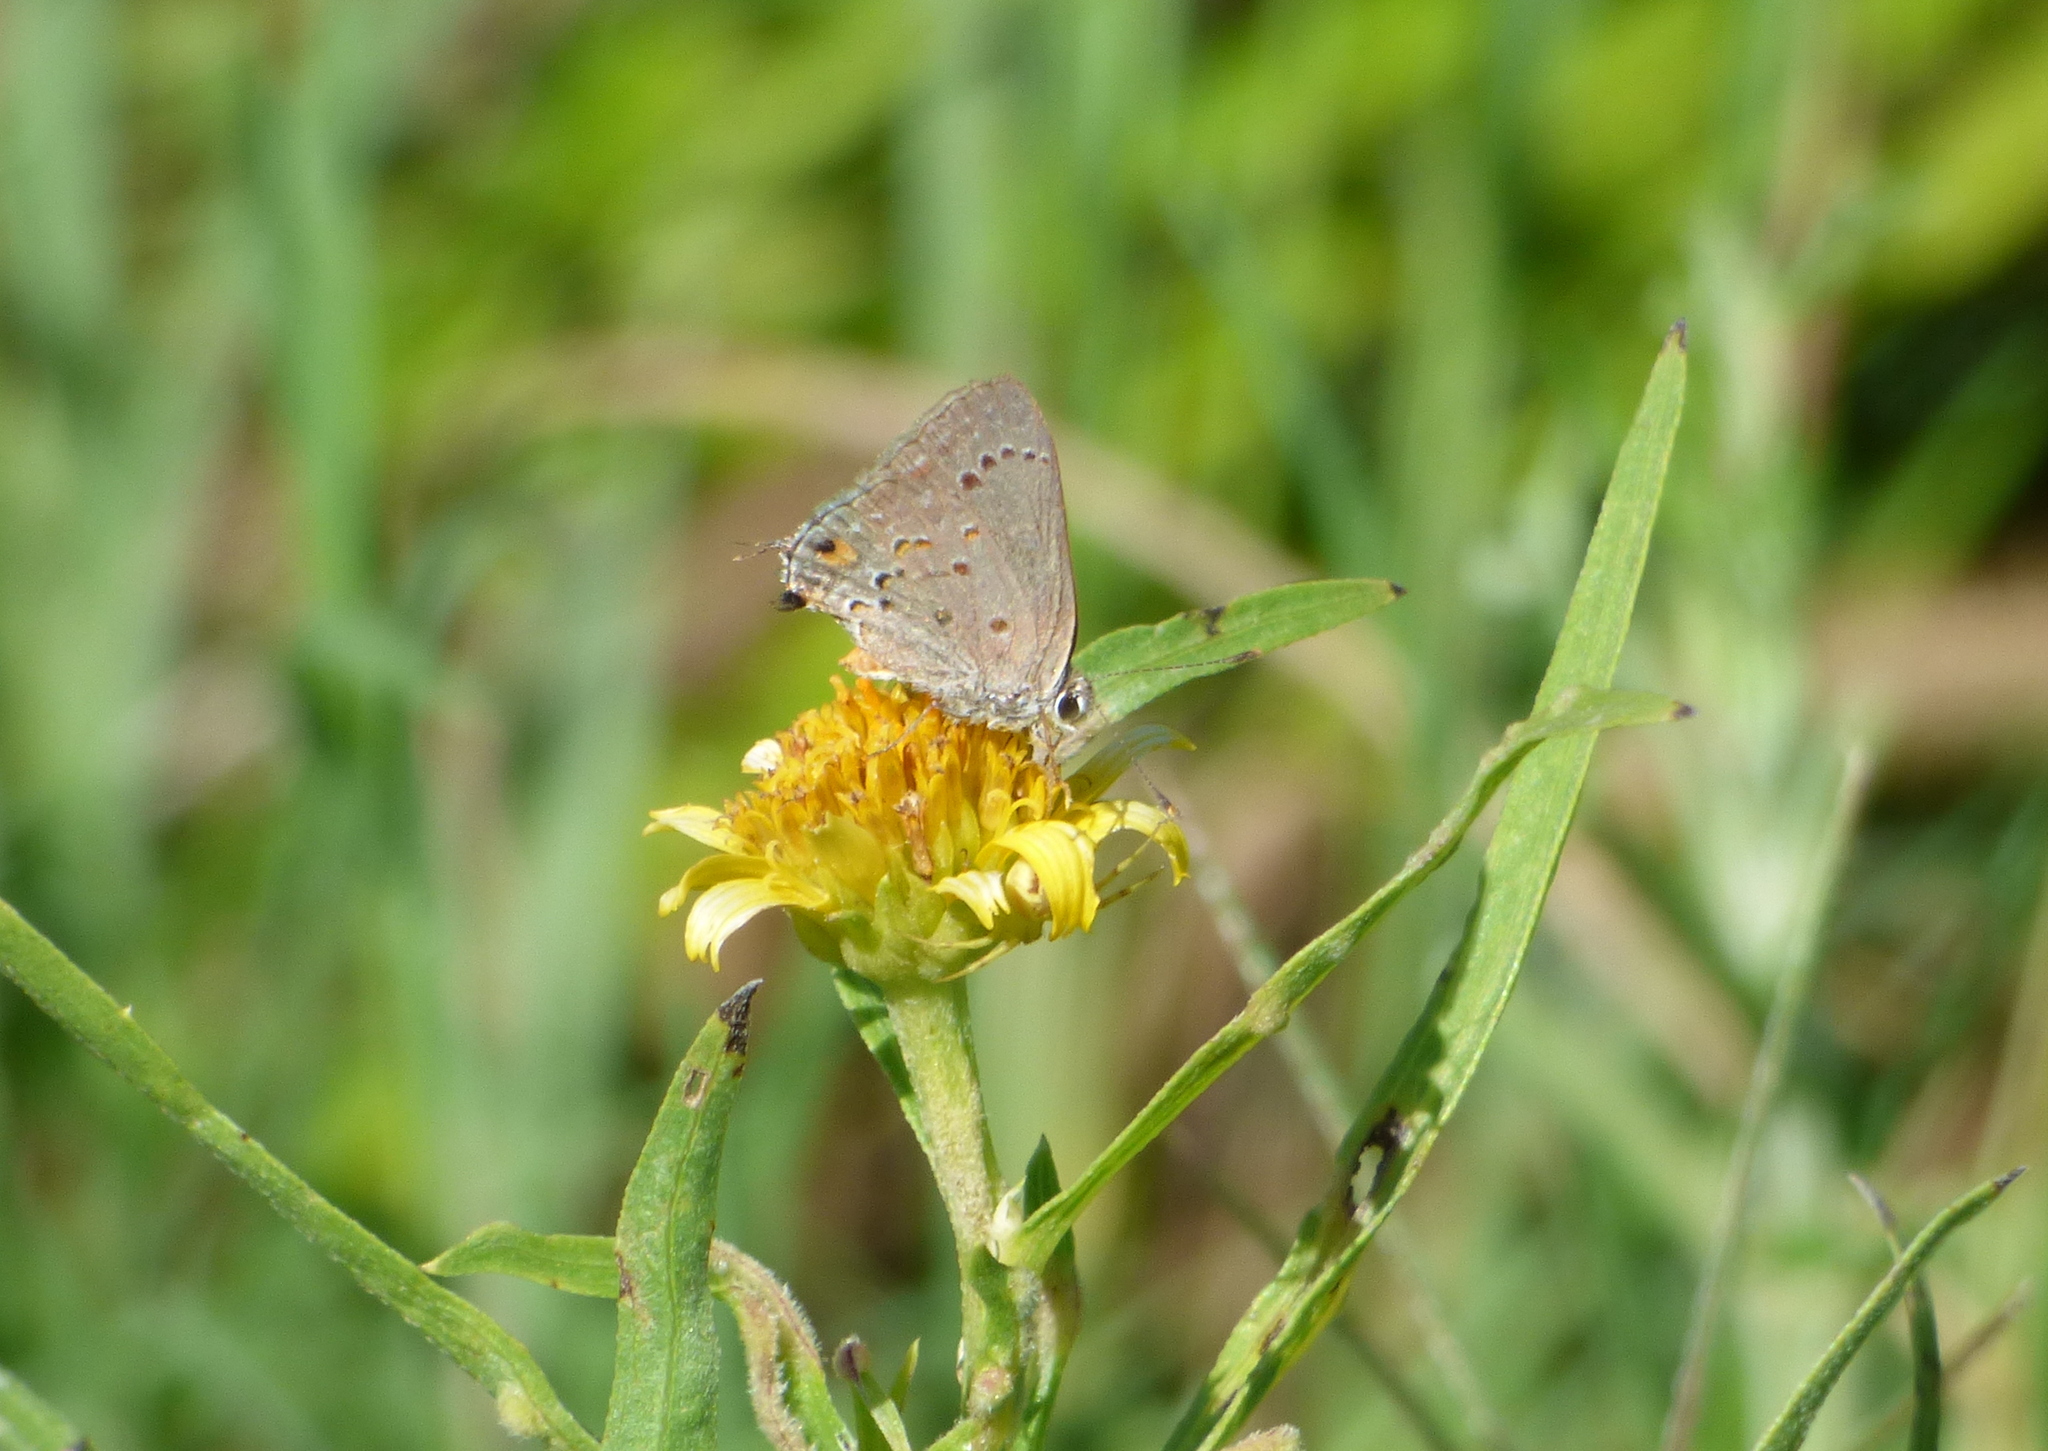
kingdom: Animalia
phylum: Arthropoda
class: Insecta
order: Lepidoptera
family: Lycaenidae
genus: Strymon
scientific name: Strymon eurytulus
